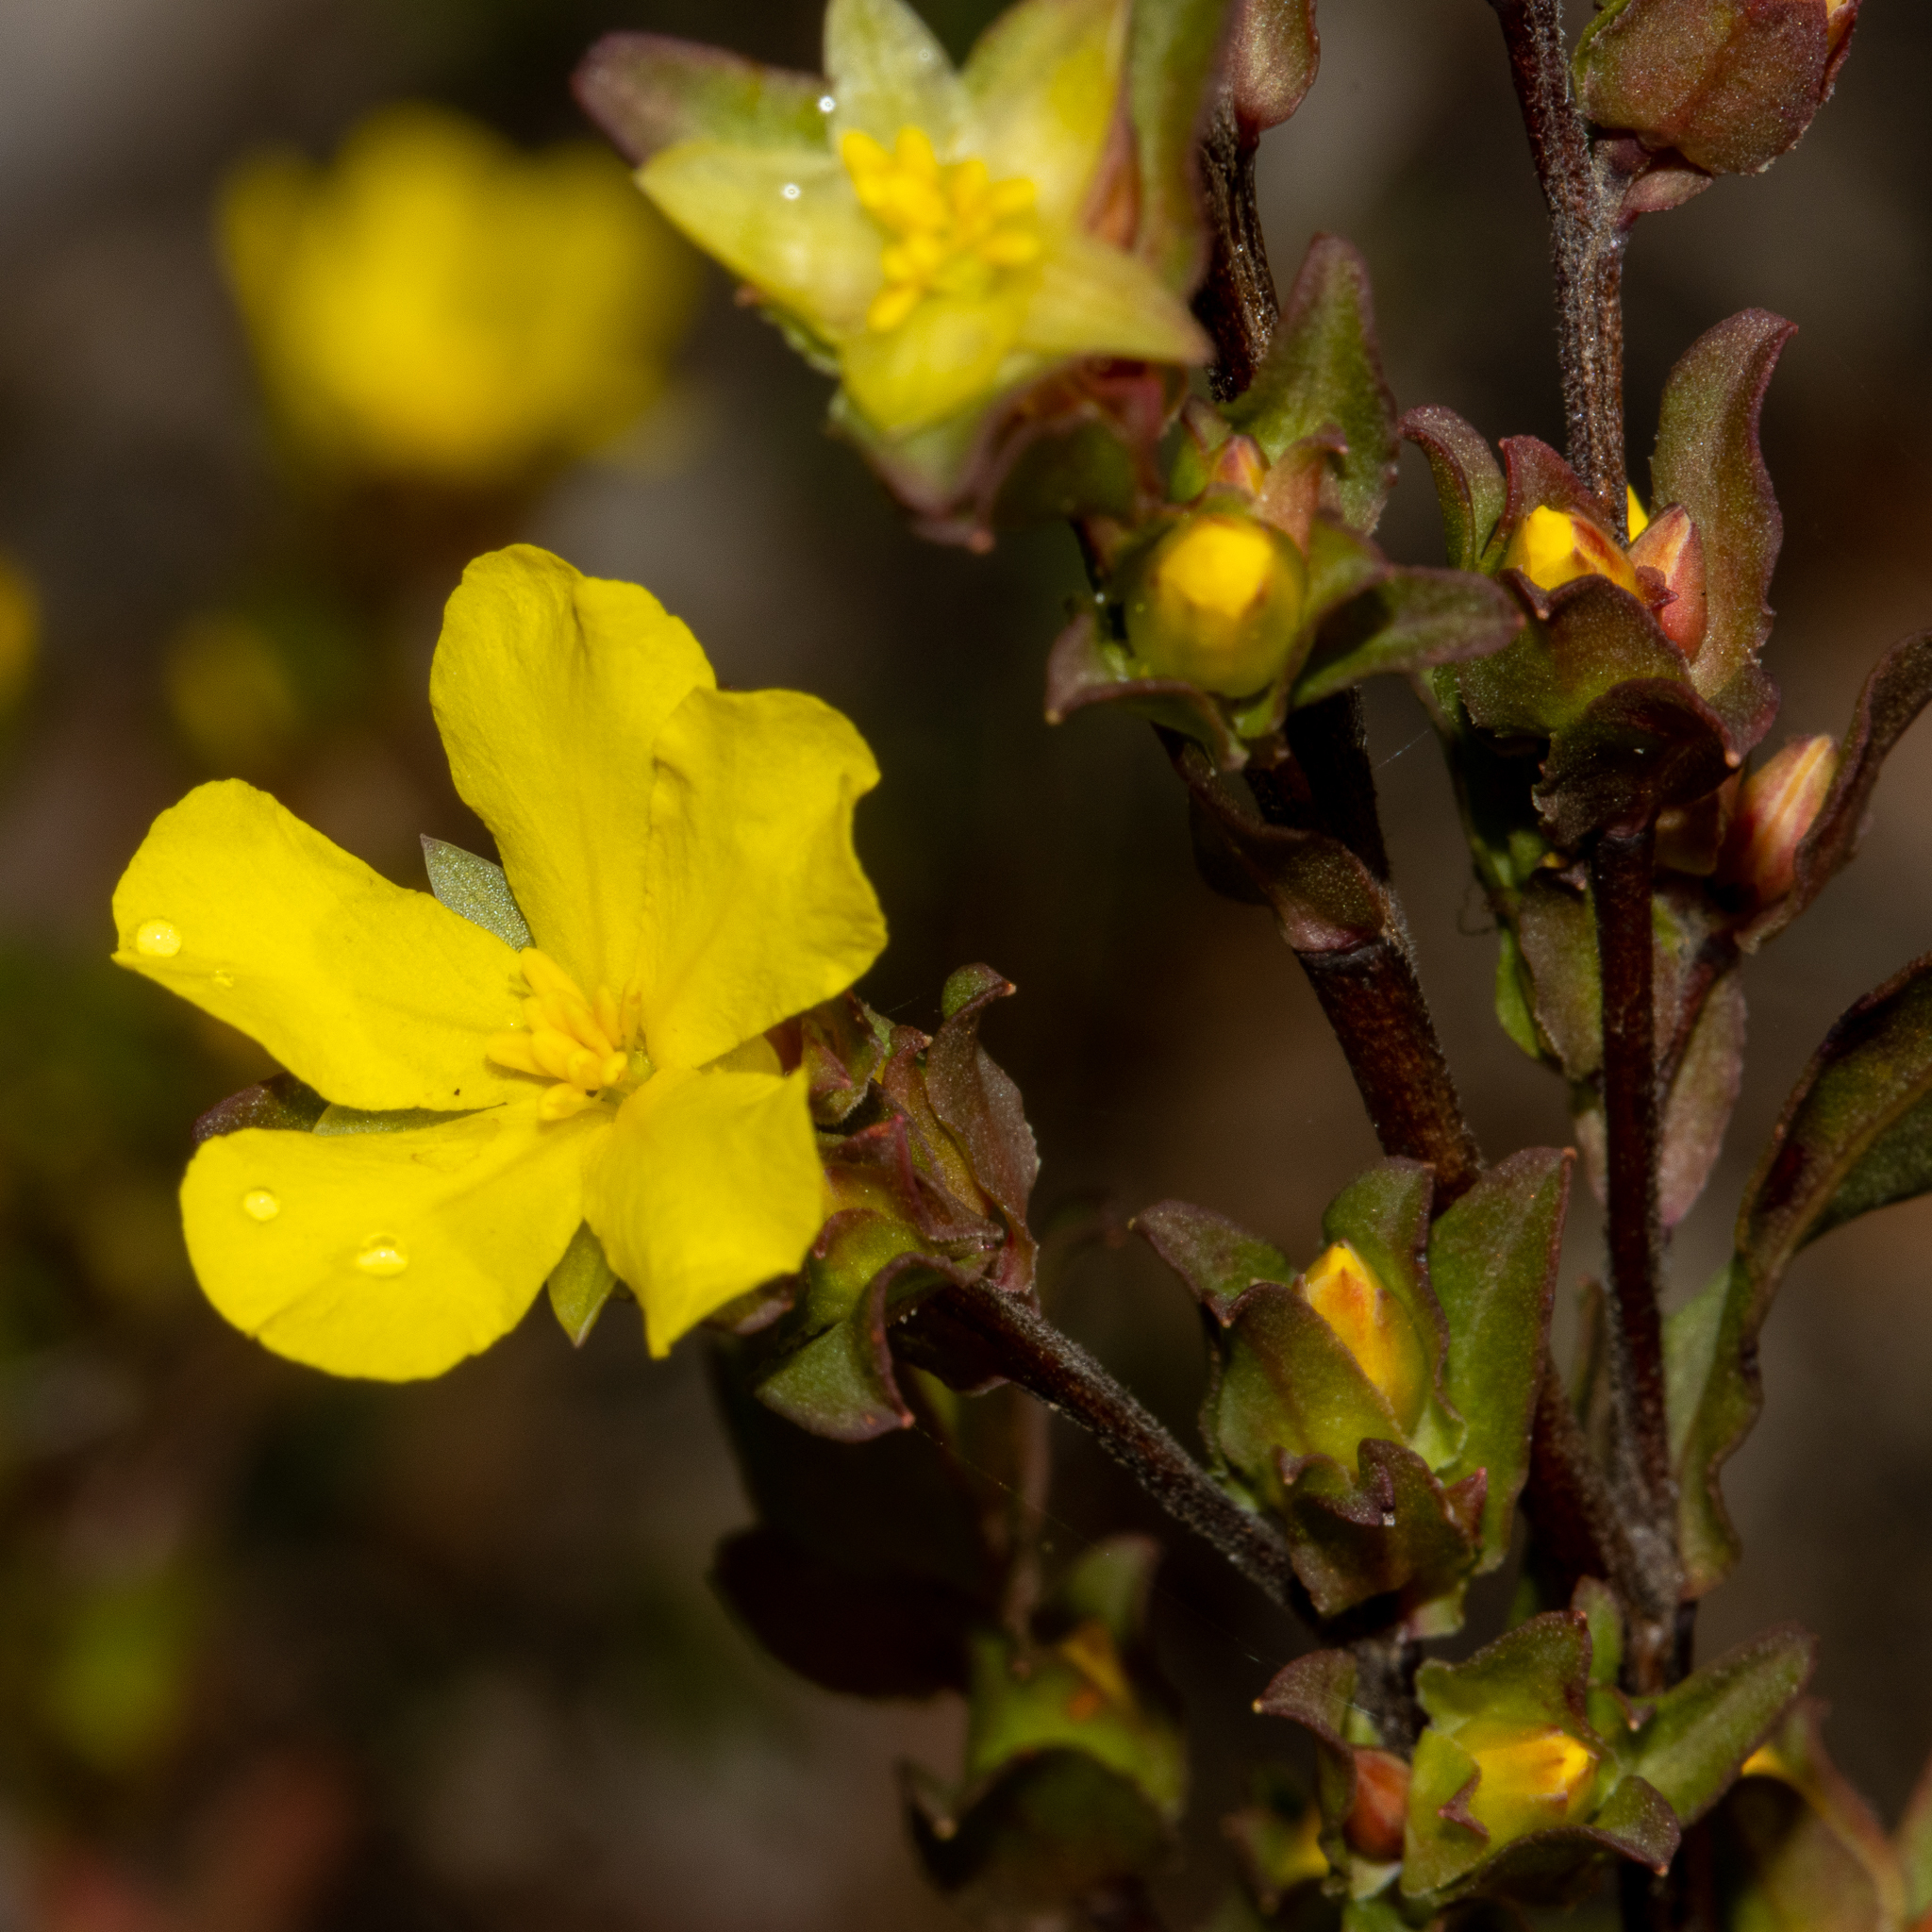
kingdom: Plantae
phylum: Tracheophyta
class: Magnoliopsida
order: Dilleniales
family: Dilleniaceae
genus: Hibbertia
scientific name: Hibbertia glomerata
